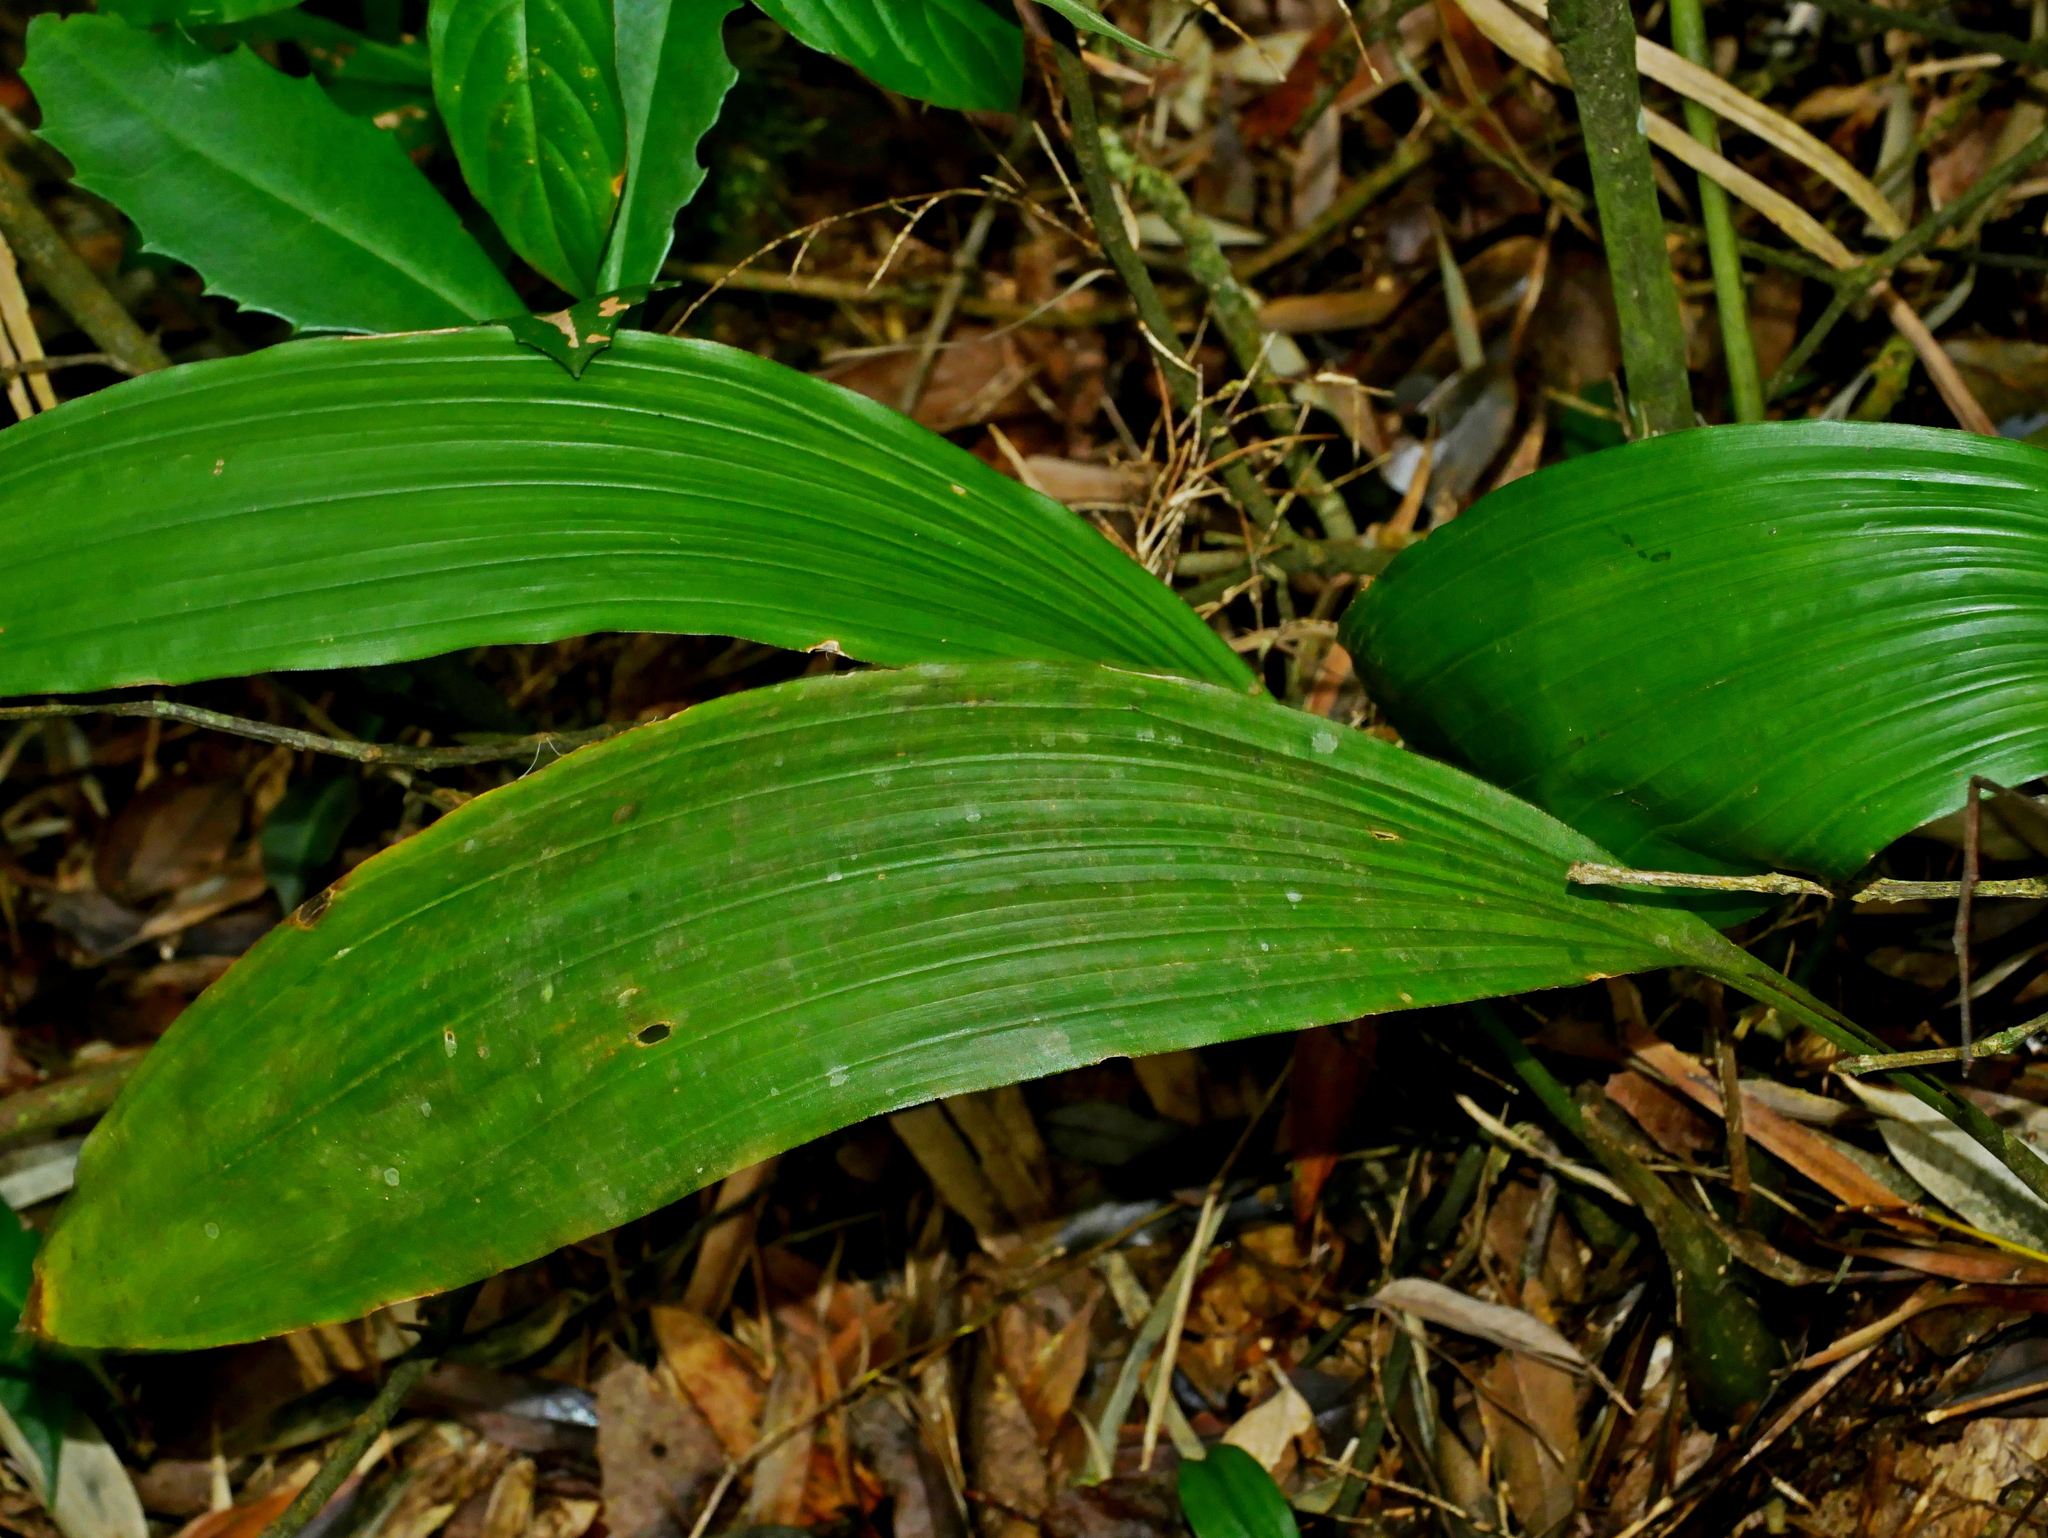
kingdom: Plantae
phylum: Tracheophyta
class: Liliopsida
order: Asparagales
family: Orchidaceae
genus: Chrysoglossum
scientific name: Chrysoglossum ornatum
